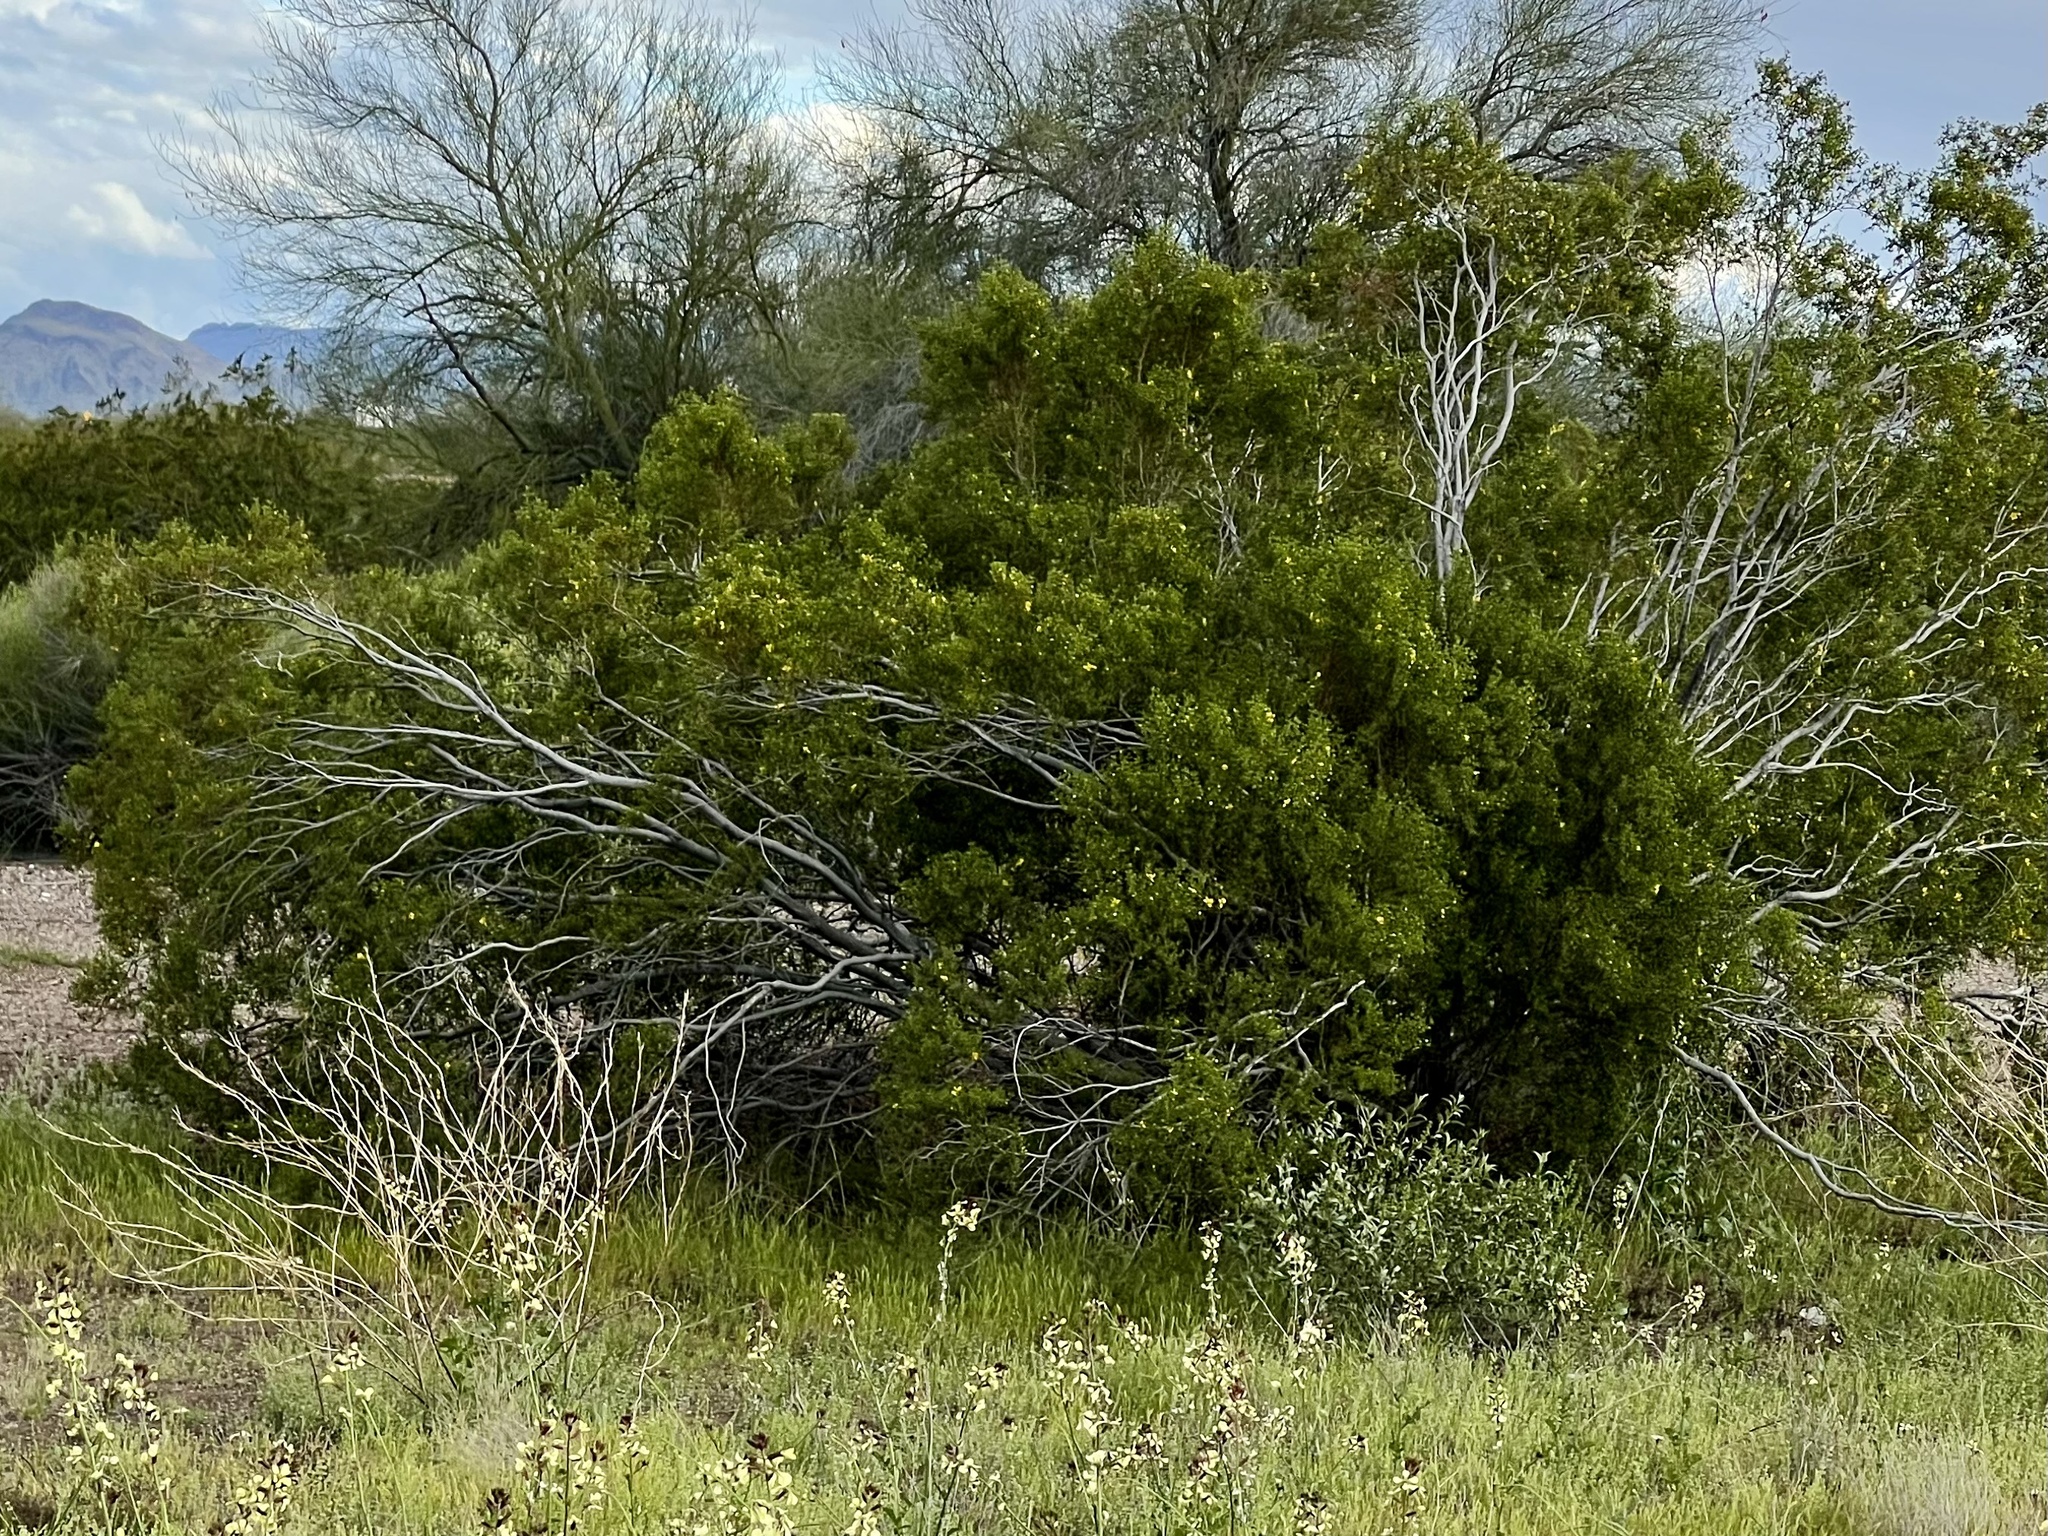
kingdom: Plantae
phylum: Tracheophyta
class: Magnoliopsida
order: Zygophyllales
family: Zygophyllaceae
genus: Larrea
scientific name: Larrea tridentata
